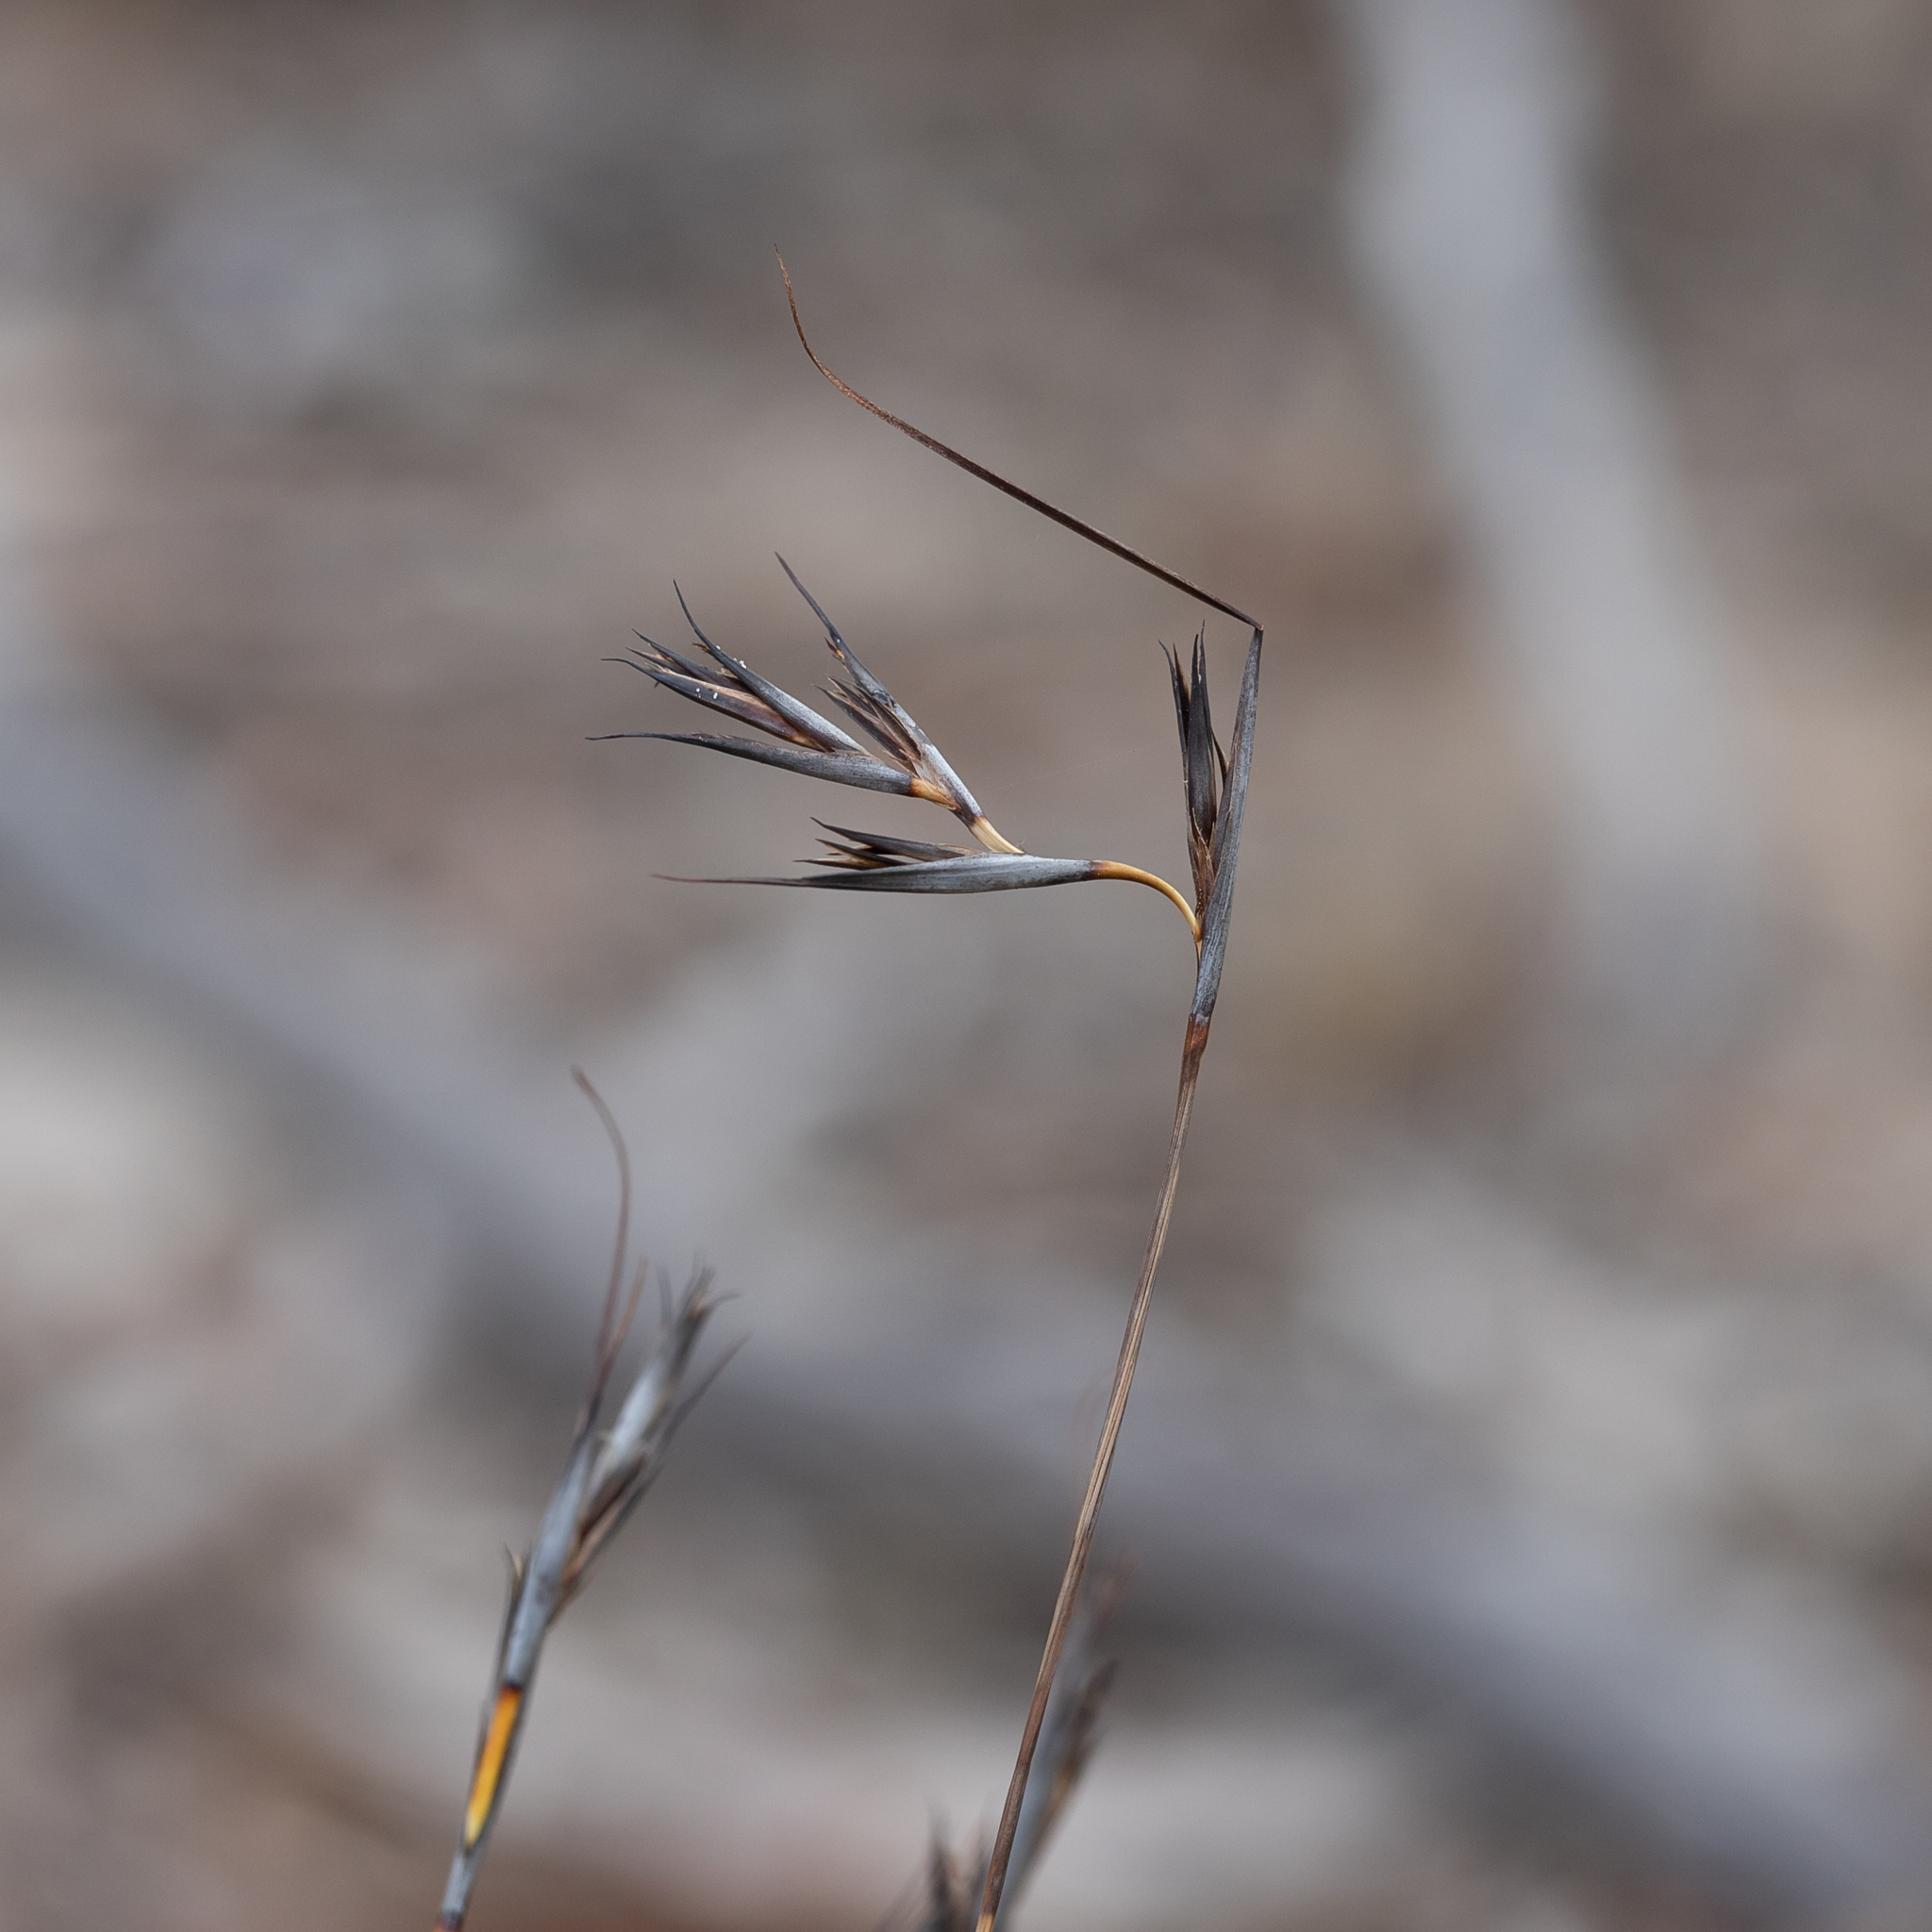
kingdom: Plantae
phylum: Tracheophyta
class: Liliopsida
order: Poales
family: Cyperaceae
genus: Lepidosperma
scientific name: Lepidosperma carphoides
